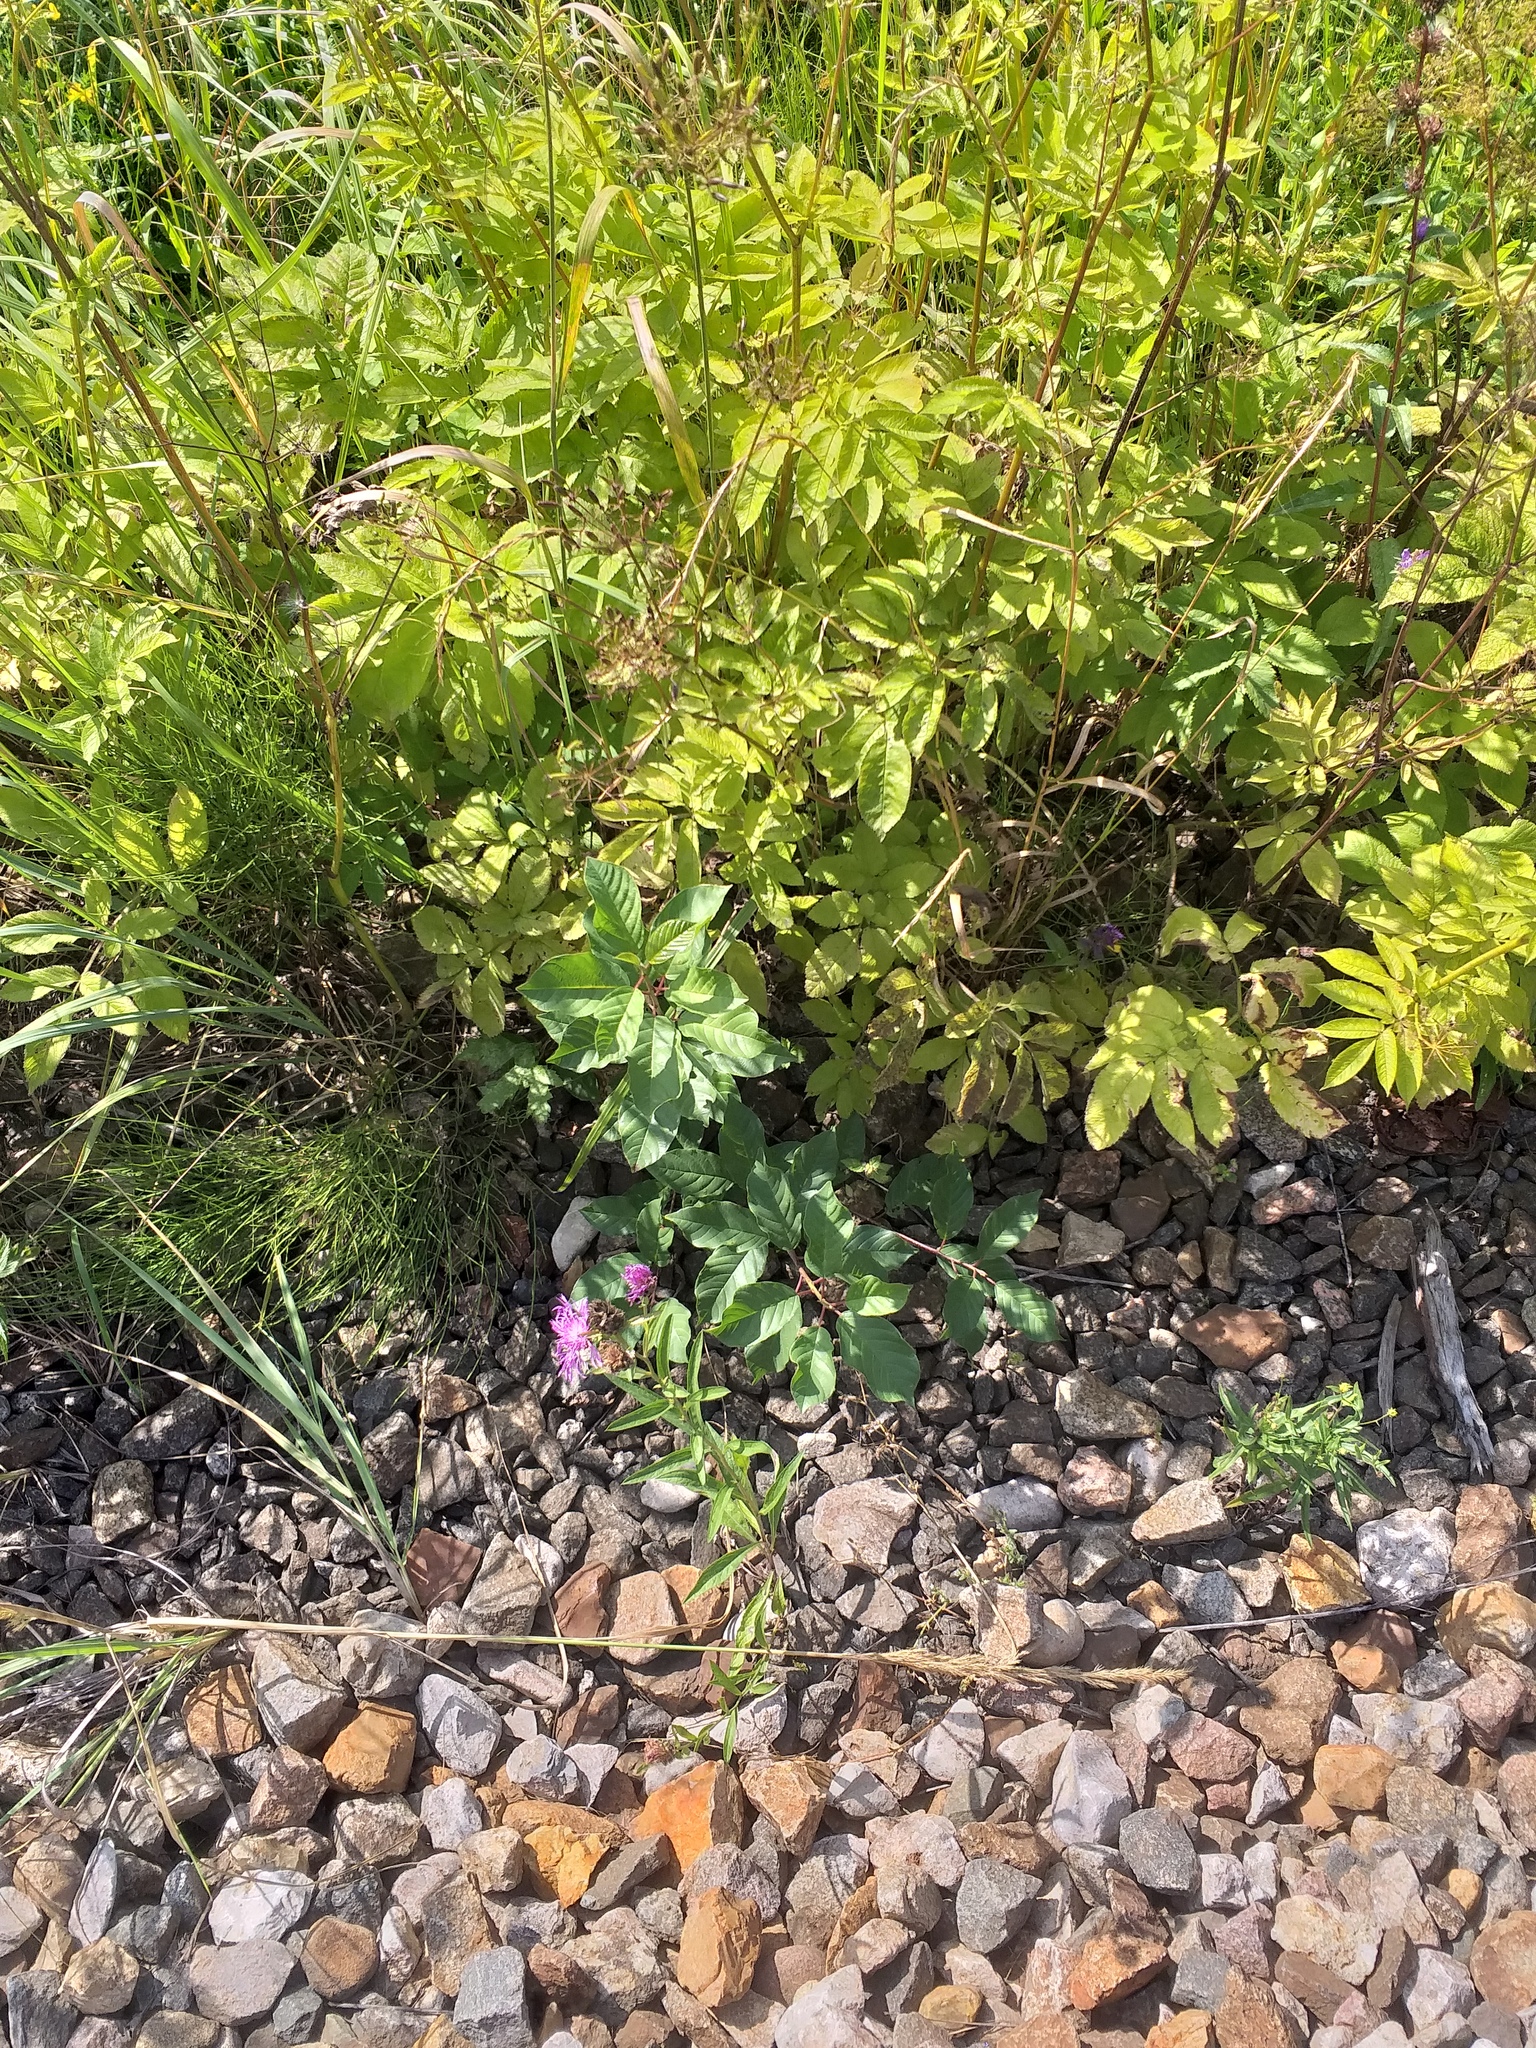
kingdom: Plantae
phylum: Tracheophyta
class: Magnoliopsida
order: Rosales
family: Rhamnaceae
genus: Frangula
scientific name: Frangula alnus
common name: Alder buckthorn
